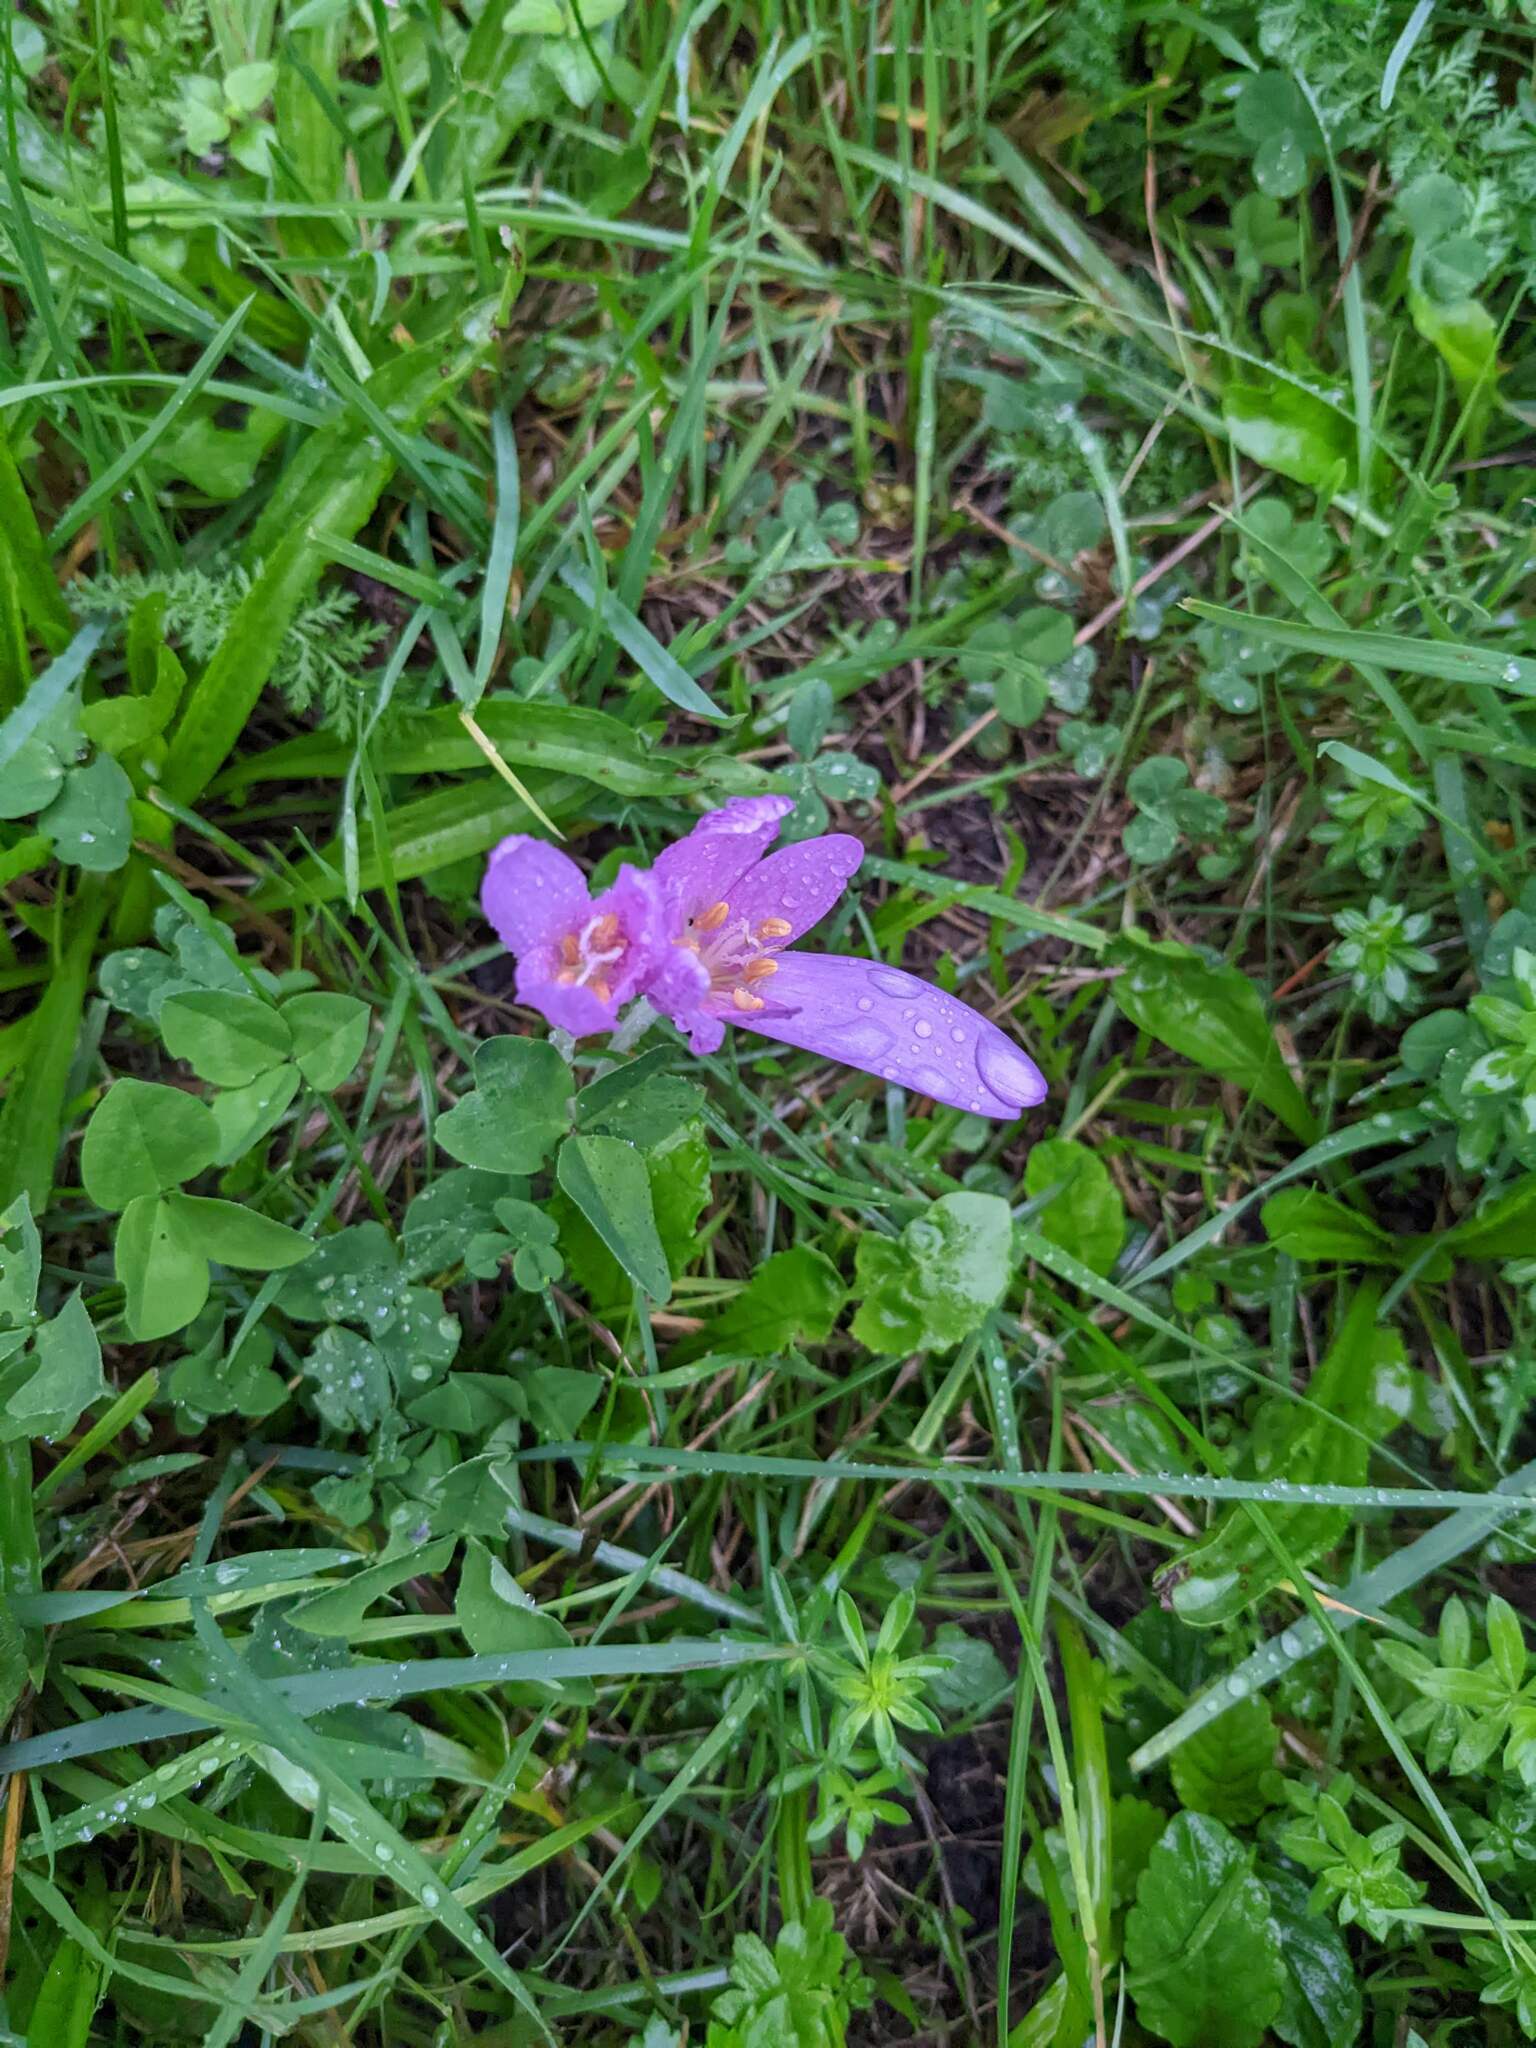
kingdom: Plantae
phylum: Tracheophyta
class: Liliopsida
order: Liliales
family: Colchicaceae
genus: Colchicum
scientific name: Colchicum autumnale
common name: Autumn crocus
